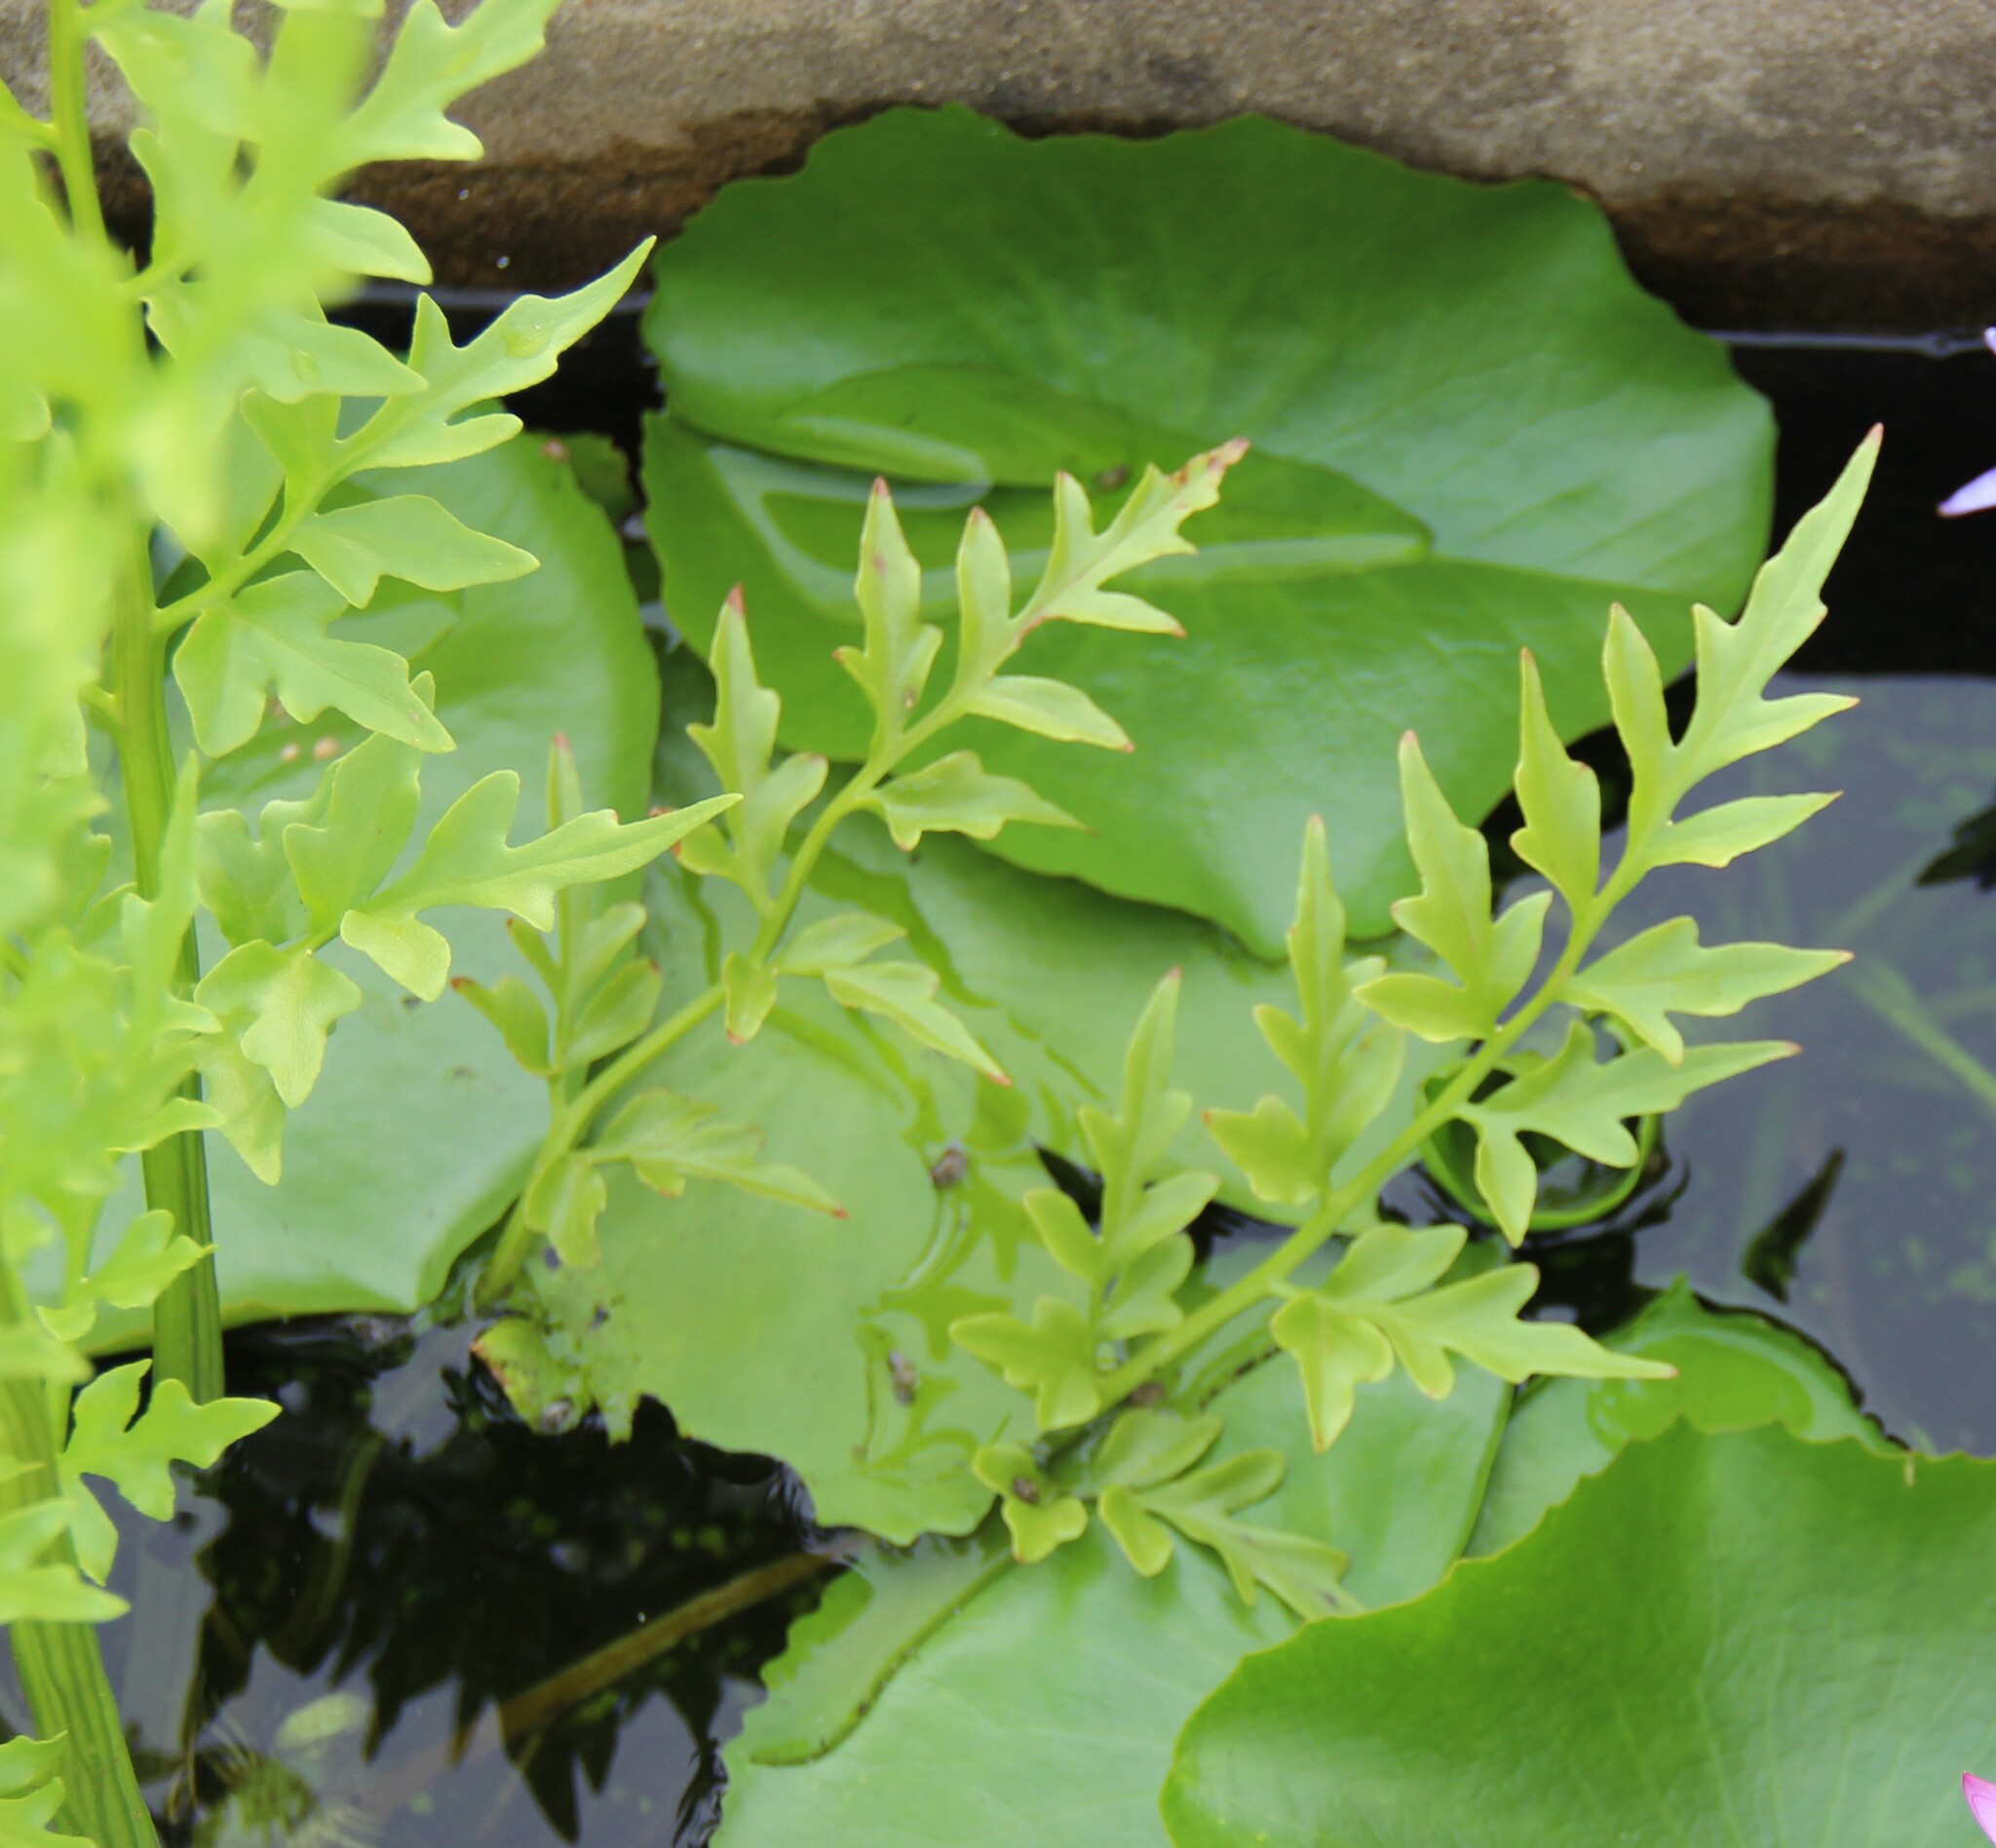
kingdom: Plantae
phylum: Tracheophyta
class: Polypodiopsida
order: Polypodiales
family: Pteridaceae
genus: Ceratopteris
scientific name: Ceratopteris thalictroides
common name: Water fern
